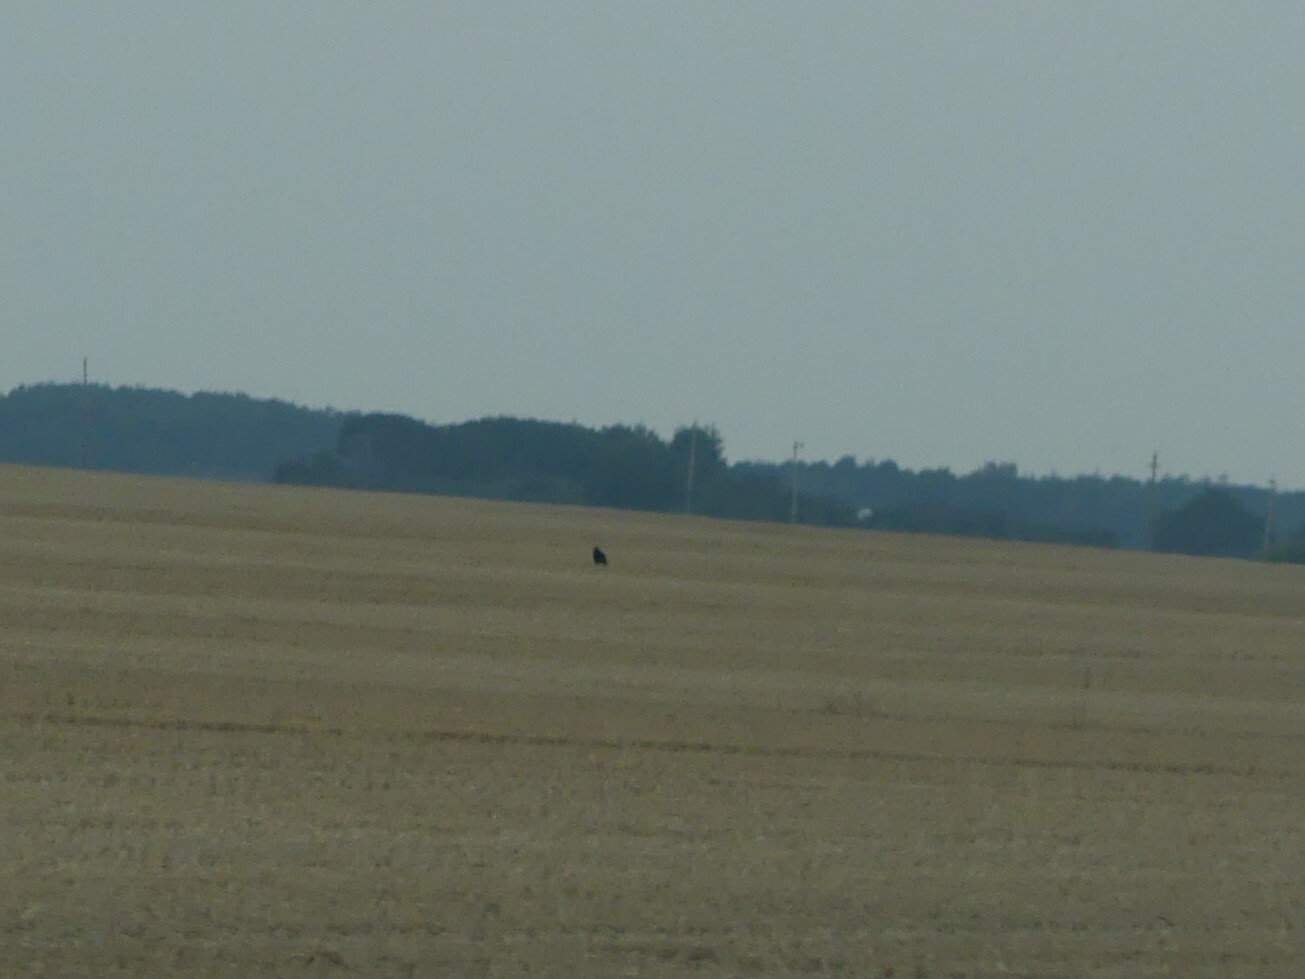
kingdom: Animalia
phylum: Chordata
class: Aves
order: Passeriformes
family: Corvidae
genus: Corvus
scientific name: Corvus corax
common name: Common raven
